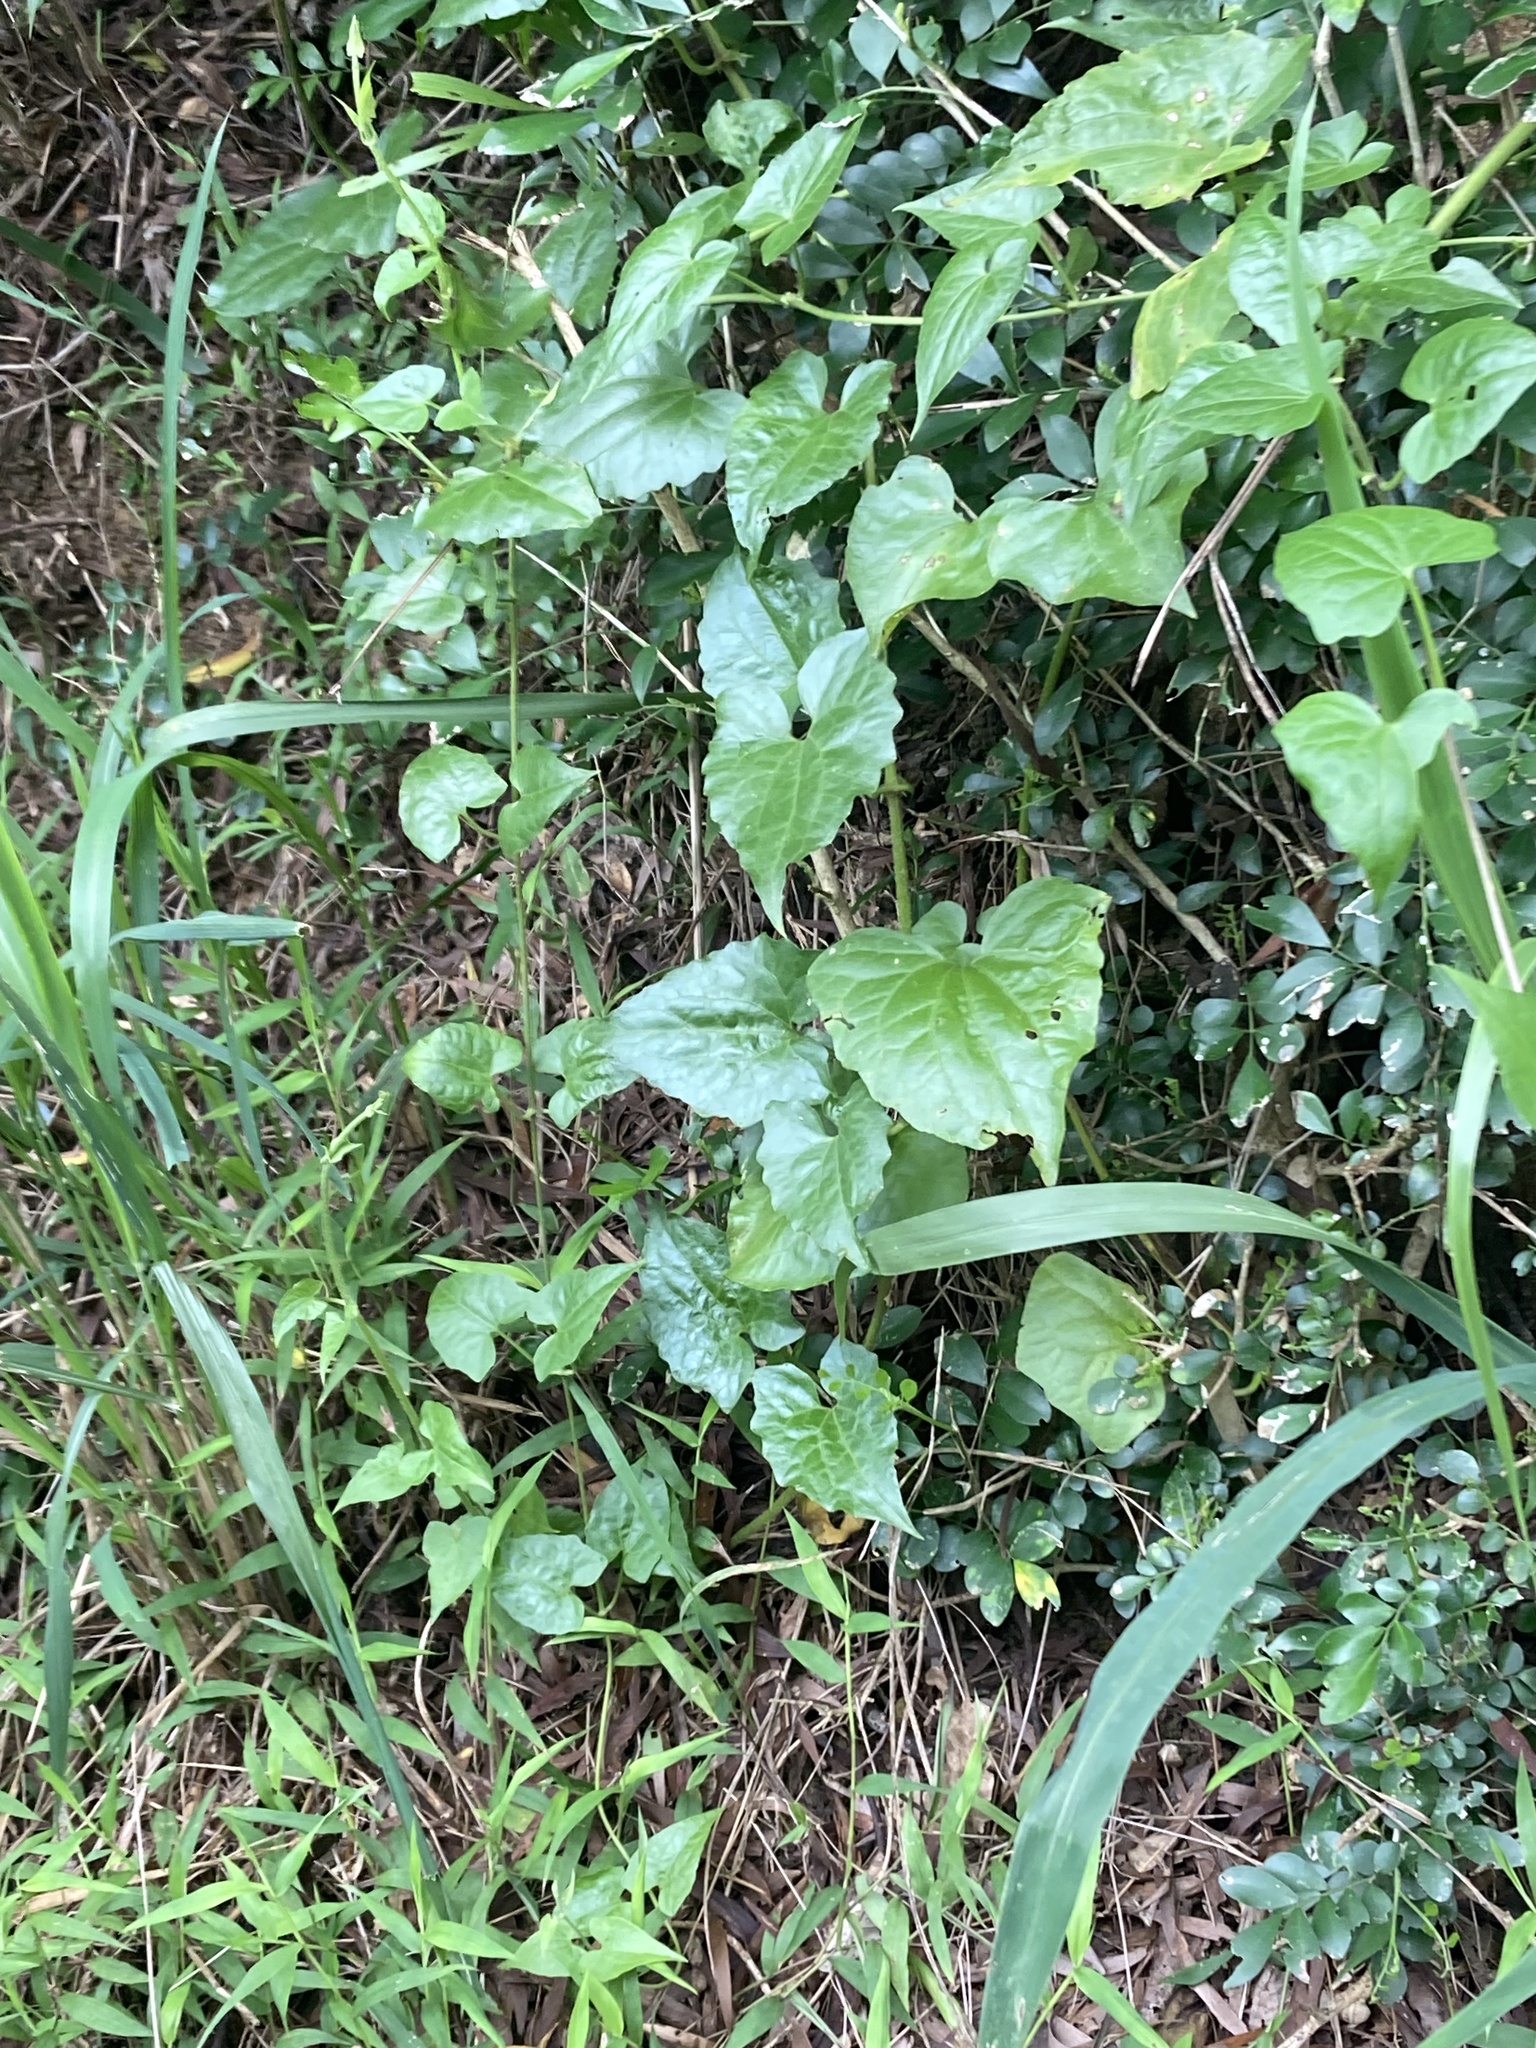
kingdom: Plantae
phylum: Tracheophyta
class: Magnoliopsida
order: Asterales
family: Asteraceae
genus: Mikania
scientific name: Mikania micrantha
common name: Mile-a-minute
